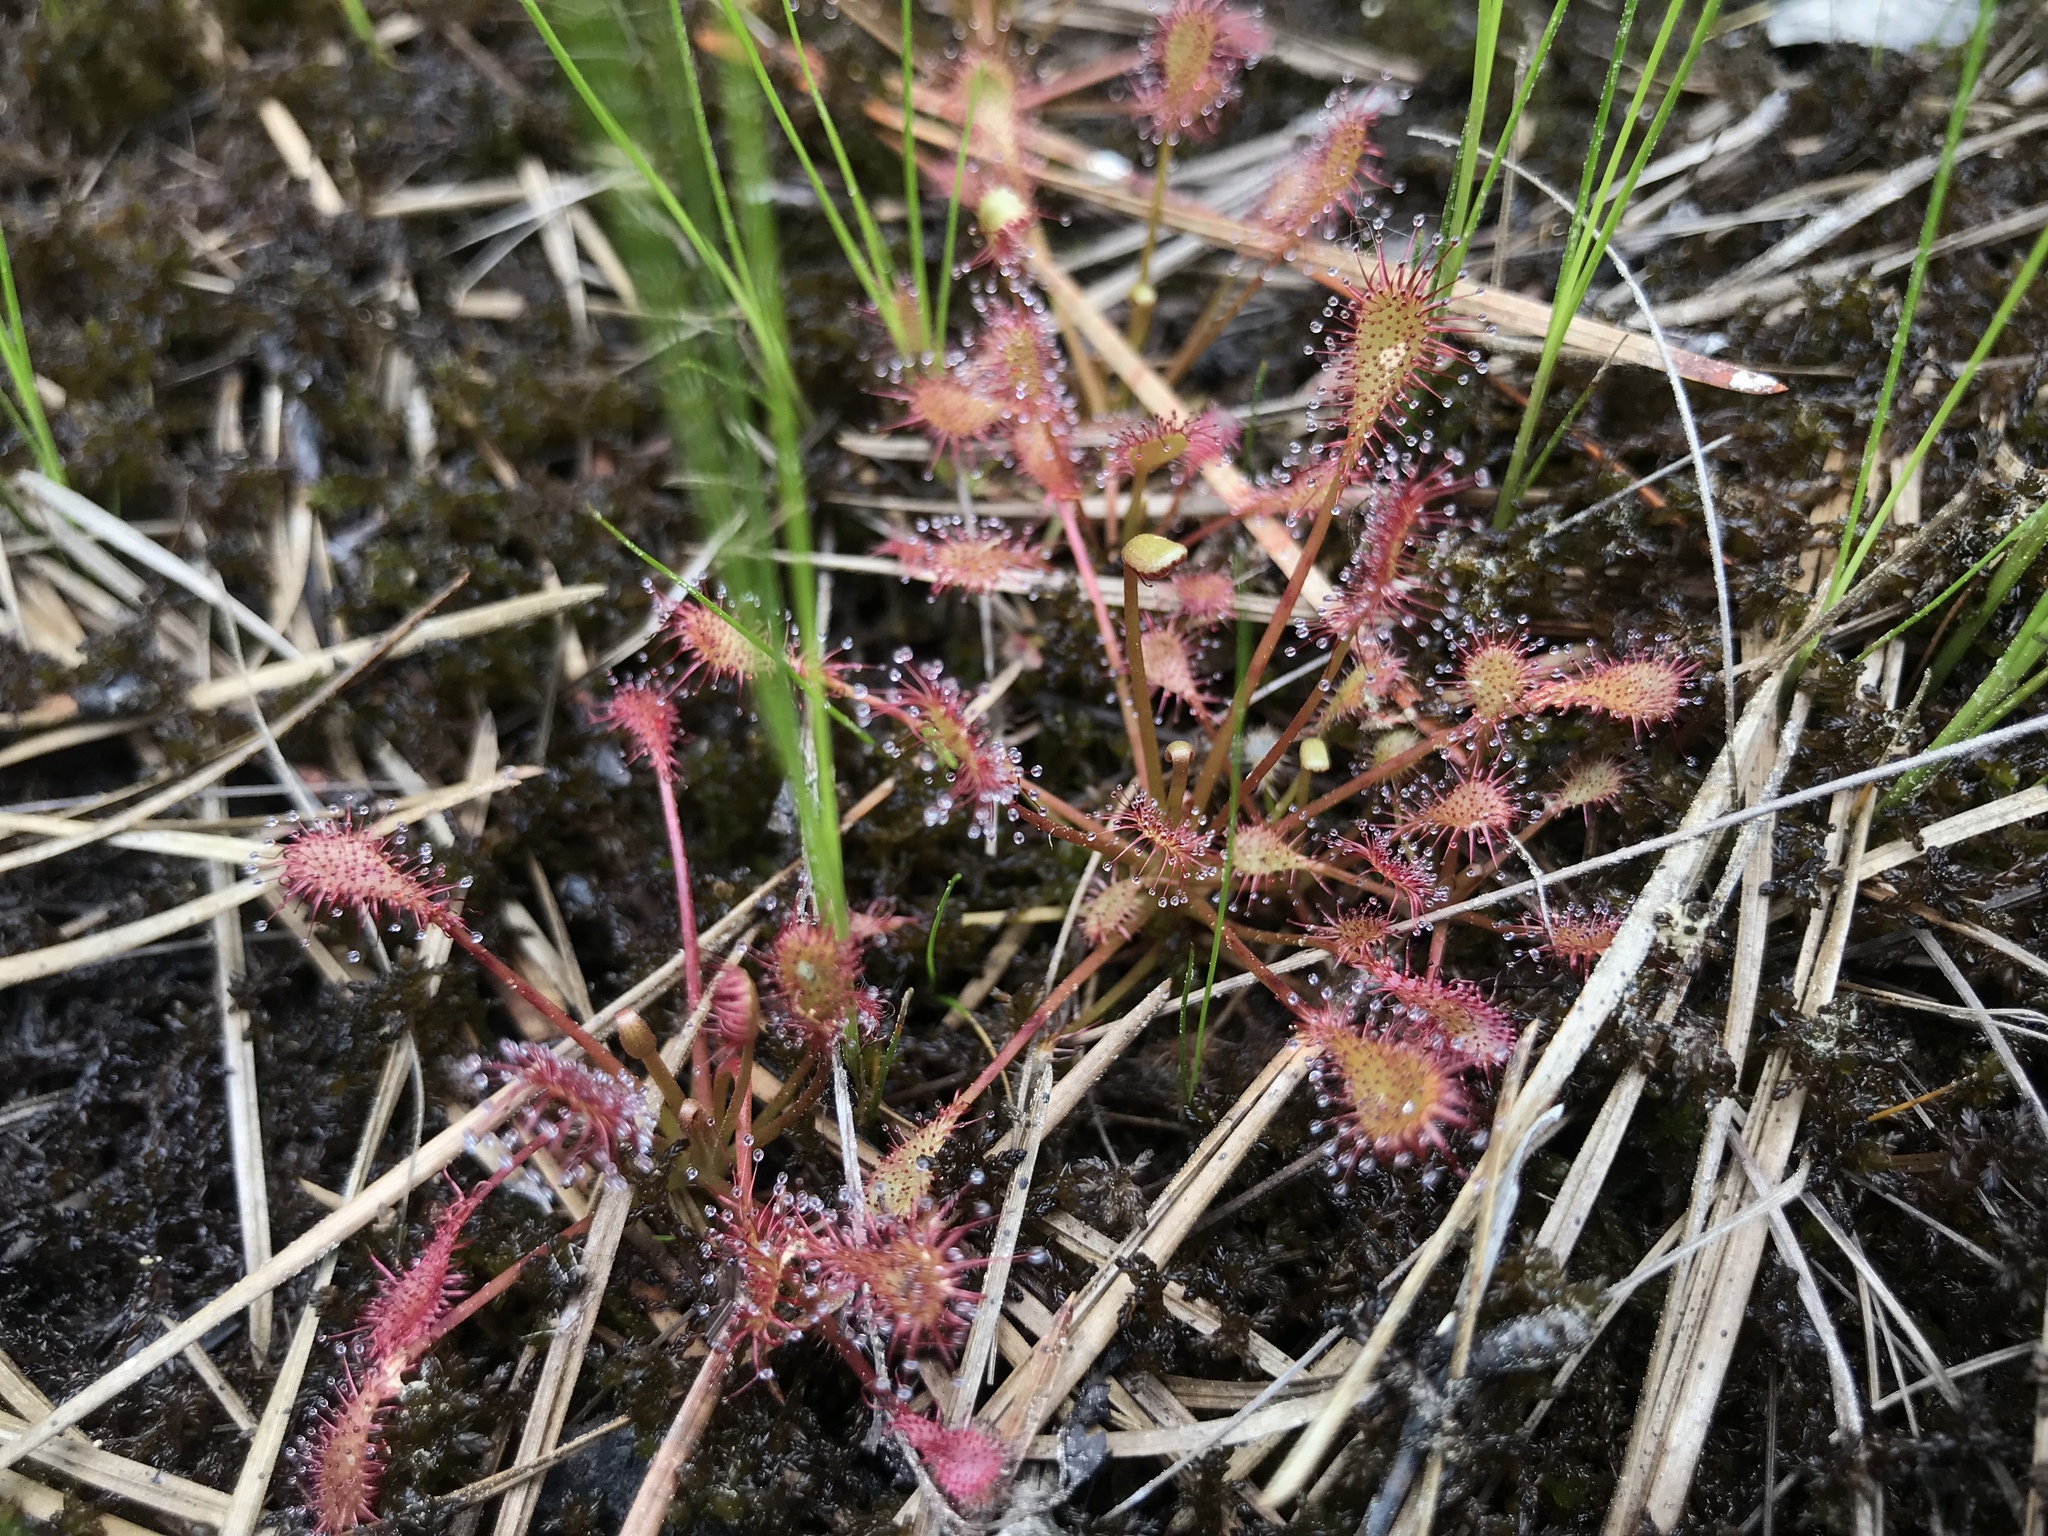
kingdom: Plantae
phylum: Tracheophyta
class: Magnoliopsida
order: Caryophyllales
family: Droseraceae
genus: Drosera
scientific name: Drosera intermedia
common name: Oblong-leaved sundew
